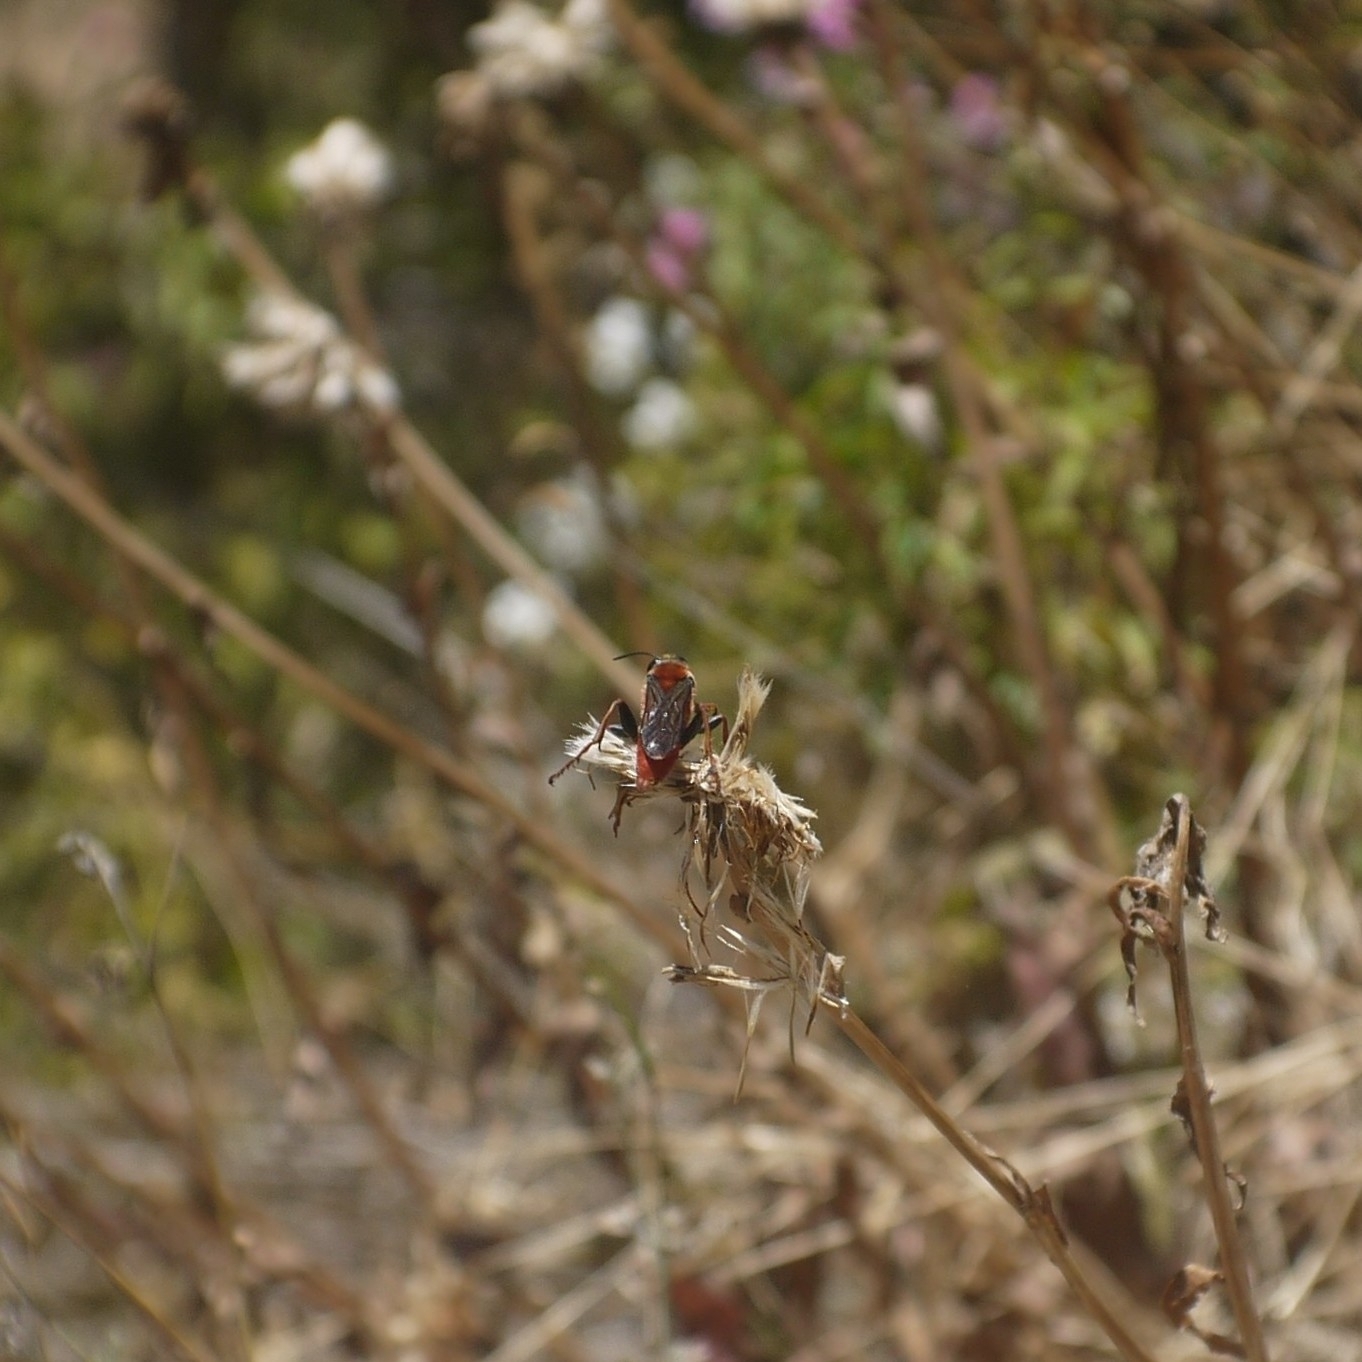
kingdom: Animalia
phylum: Arthropoda
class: Insecta
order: Hymenoptera
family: Sphecidae
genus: Sphex
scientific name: Sphex latreillei
